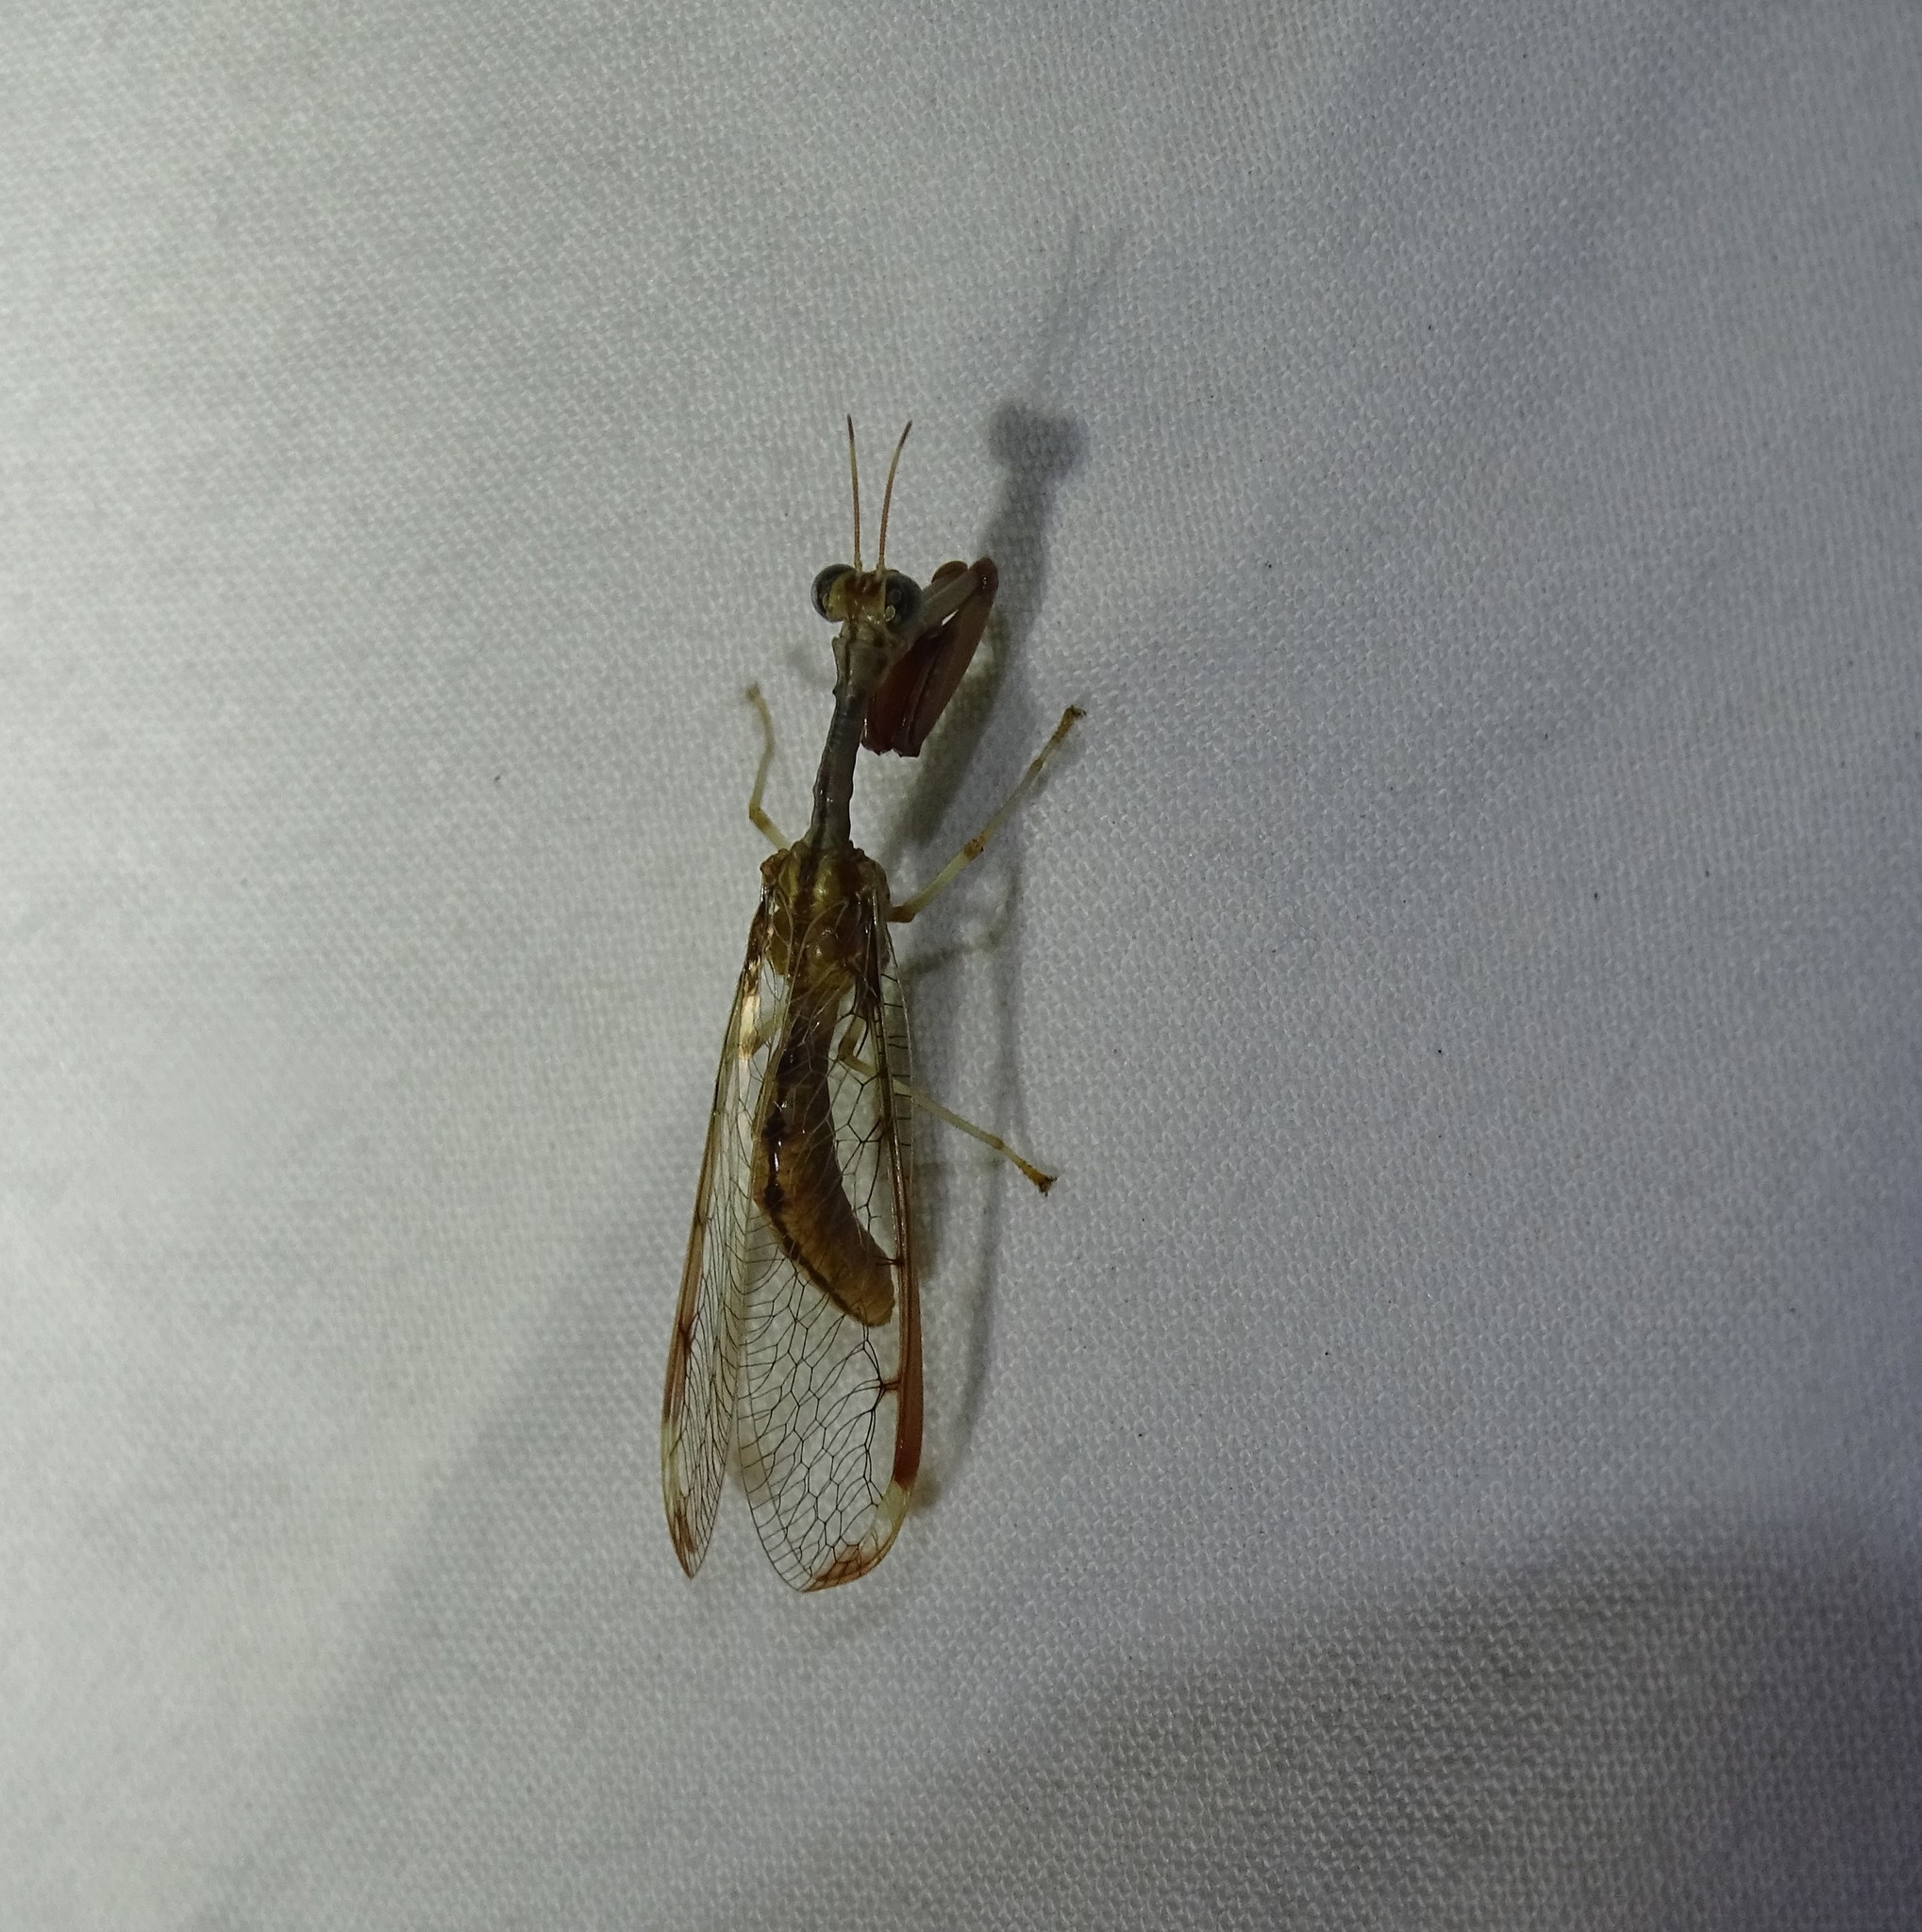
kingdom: Animalia
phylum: Arthropoda
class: Insecta
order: Neuroptera
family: Mantispidae
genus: Dicromantispa
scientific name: Dicromantispa interrupta
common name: Four-spotted mantidfly
